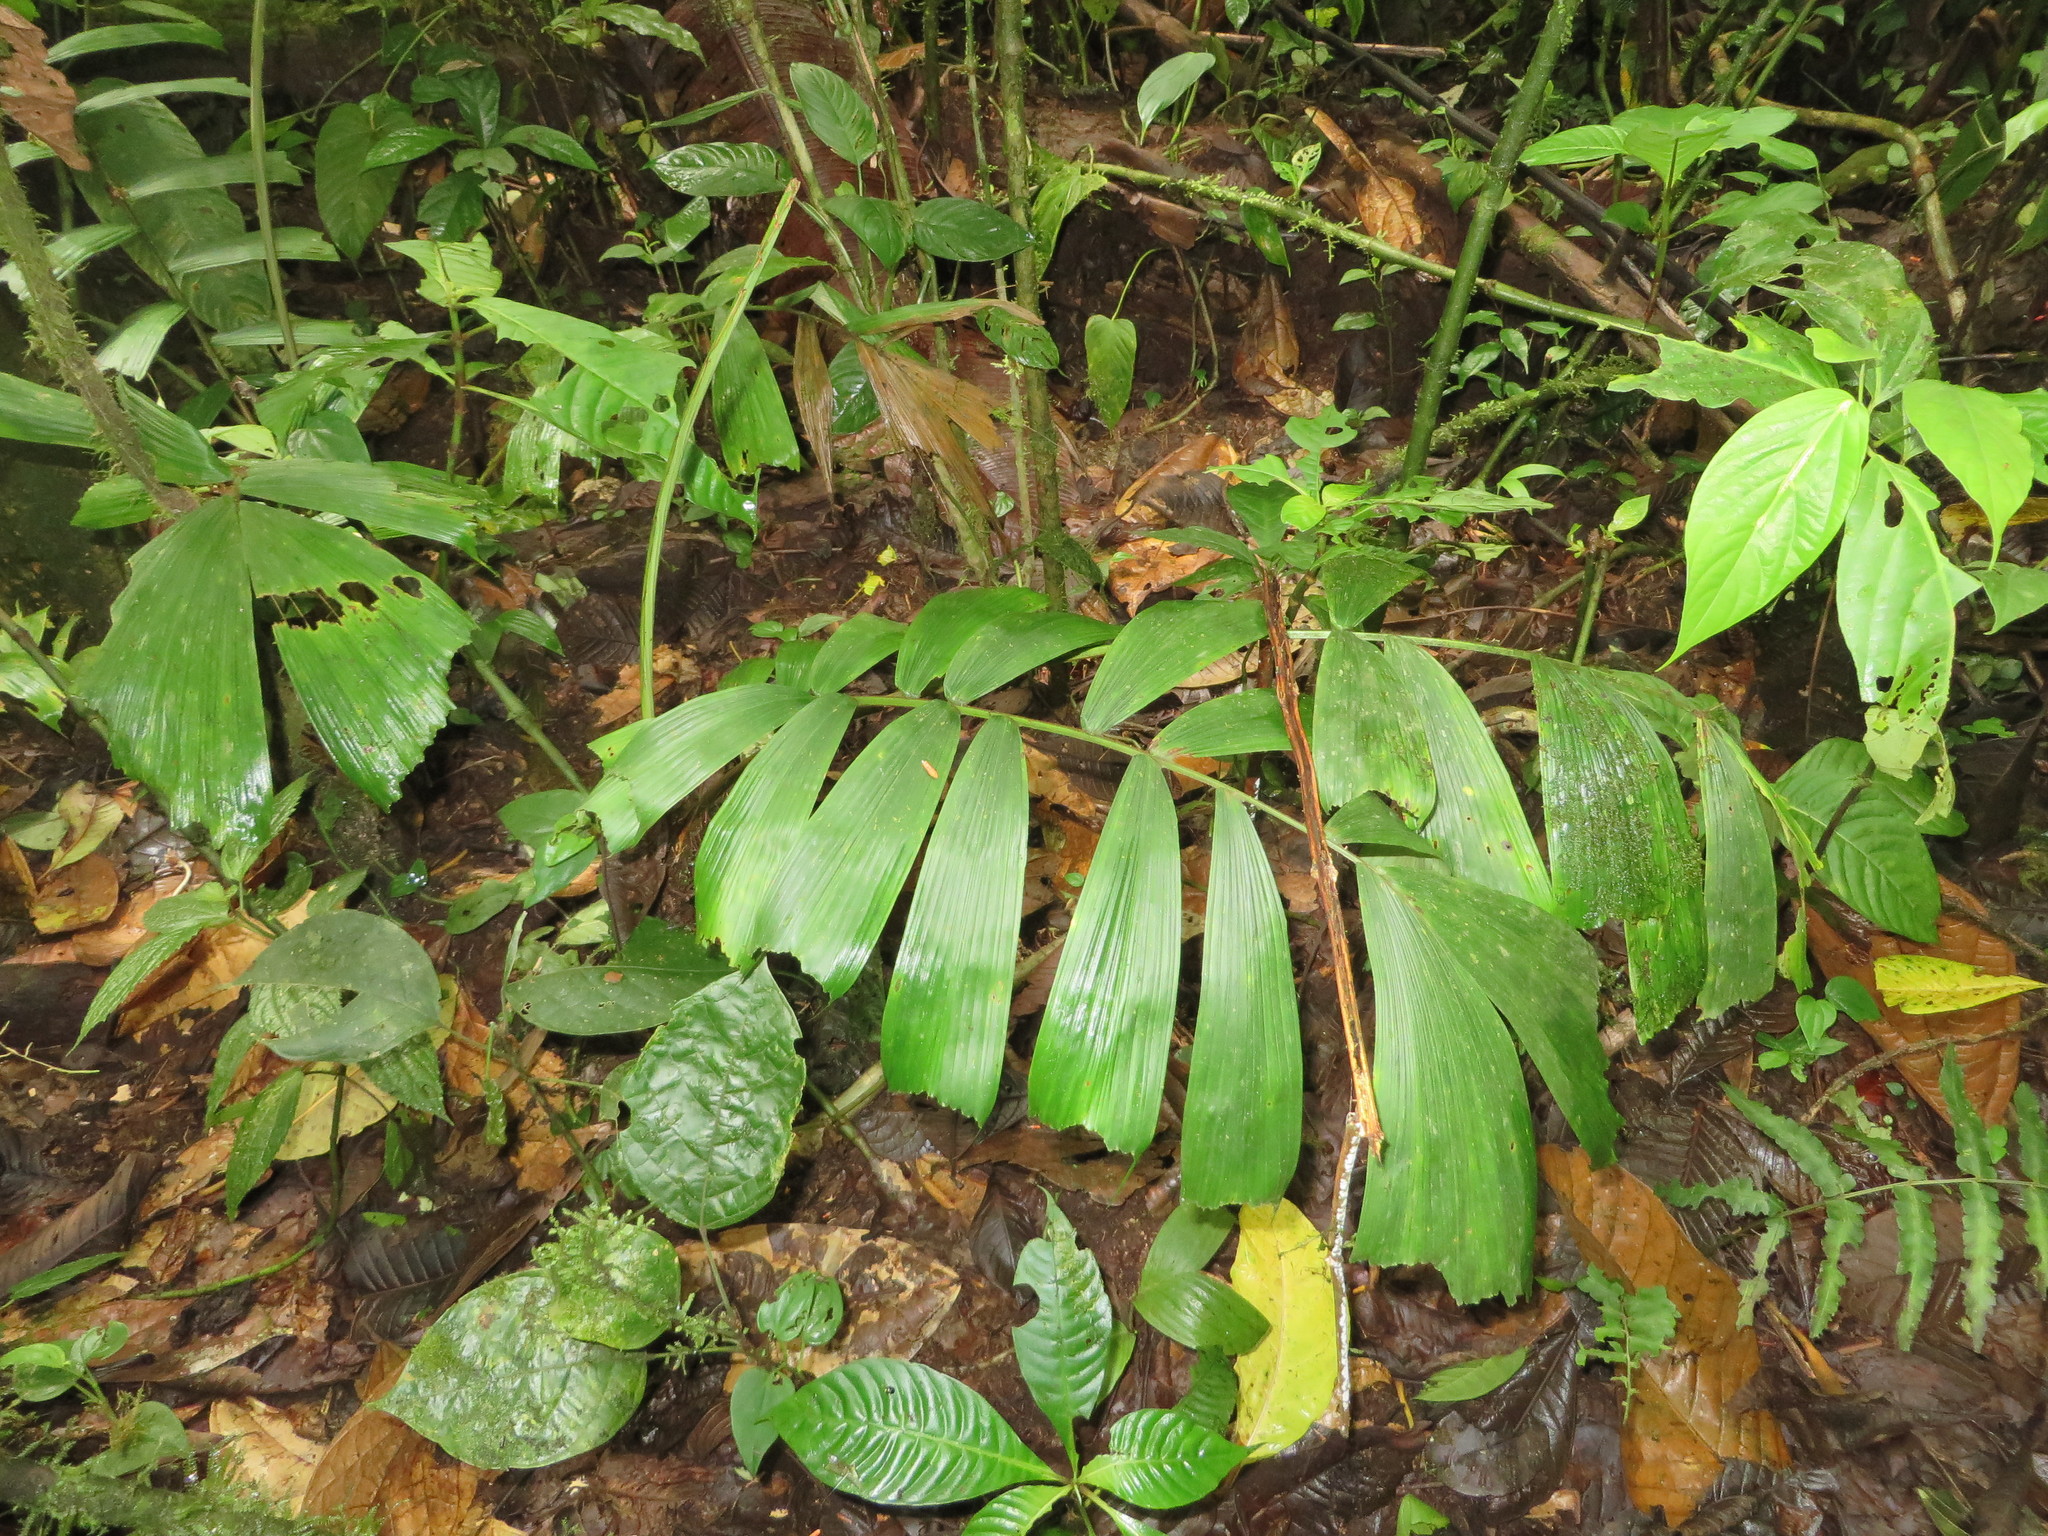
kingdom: Plantae
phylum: Tracheophyta
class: Liliopsida
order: Arecales
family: Arecaceae
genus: Aiphanes
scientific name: Aiphanes erinacea
